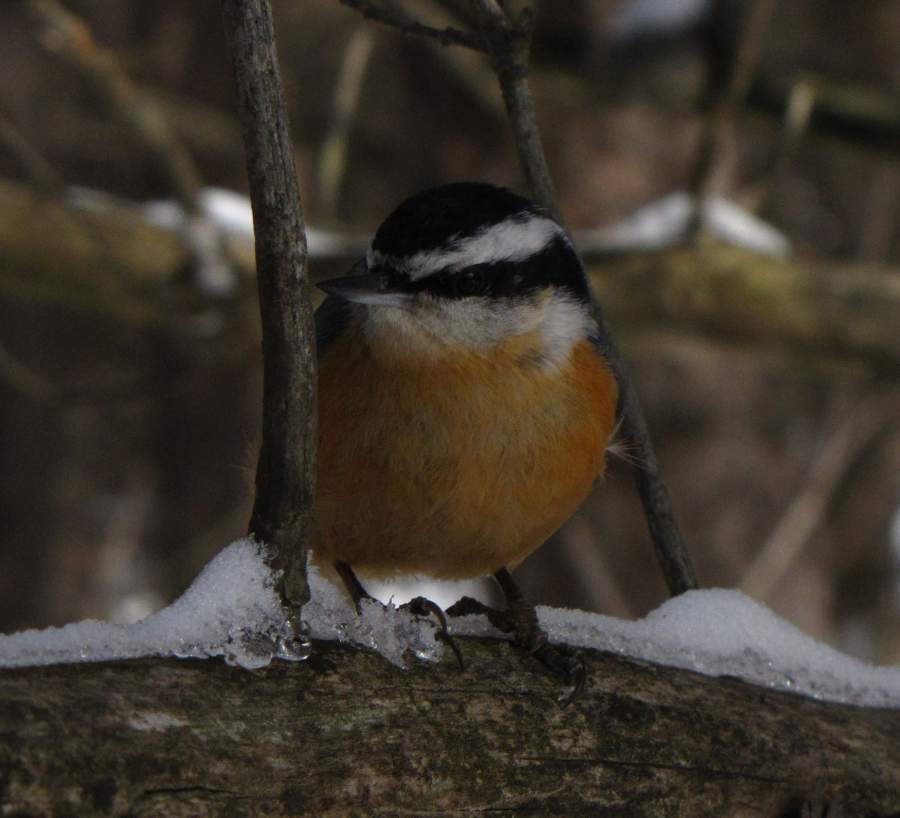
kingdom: Animalia
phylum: Chordata
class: Aves
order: Passeriformes
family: Sittidae
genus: Sitta
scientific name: Sitta canadensis
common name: Red-breasted nuthatch
